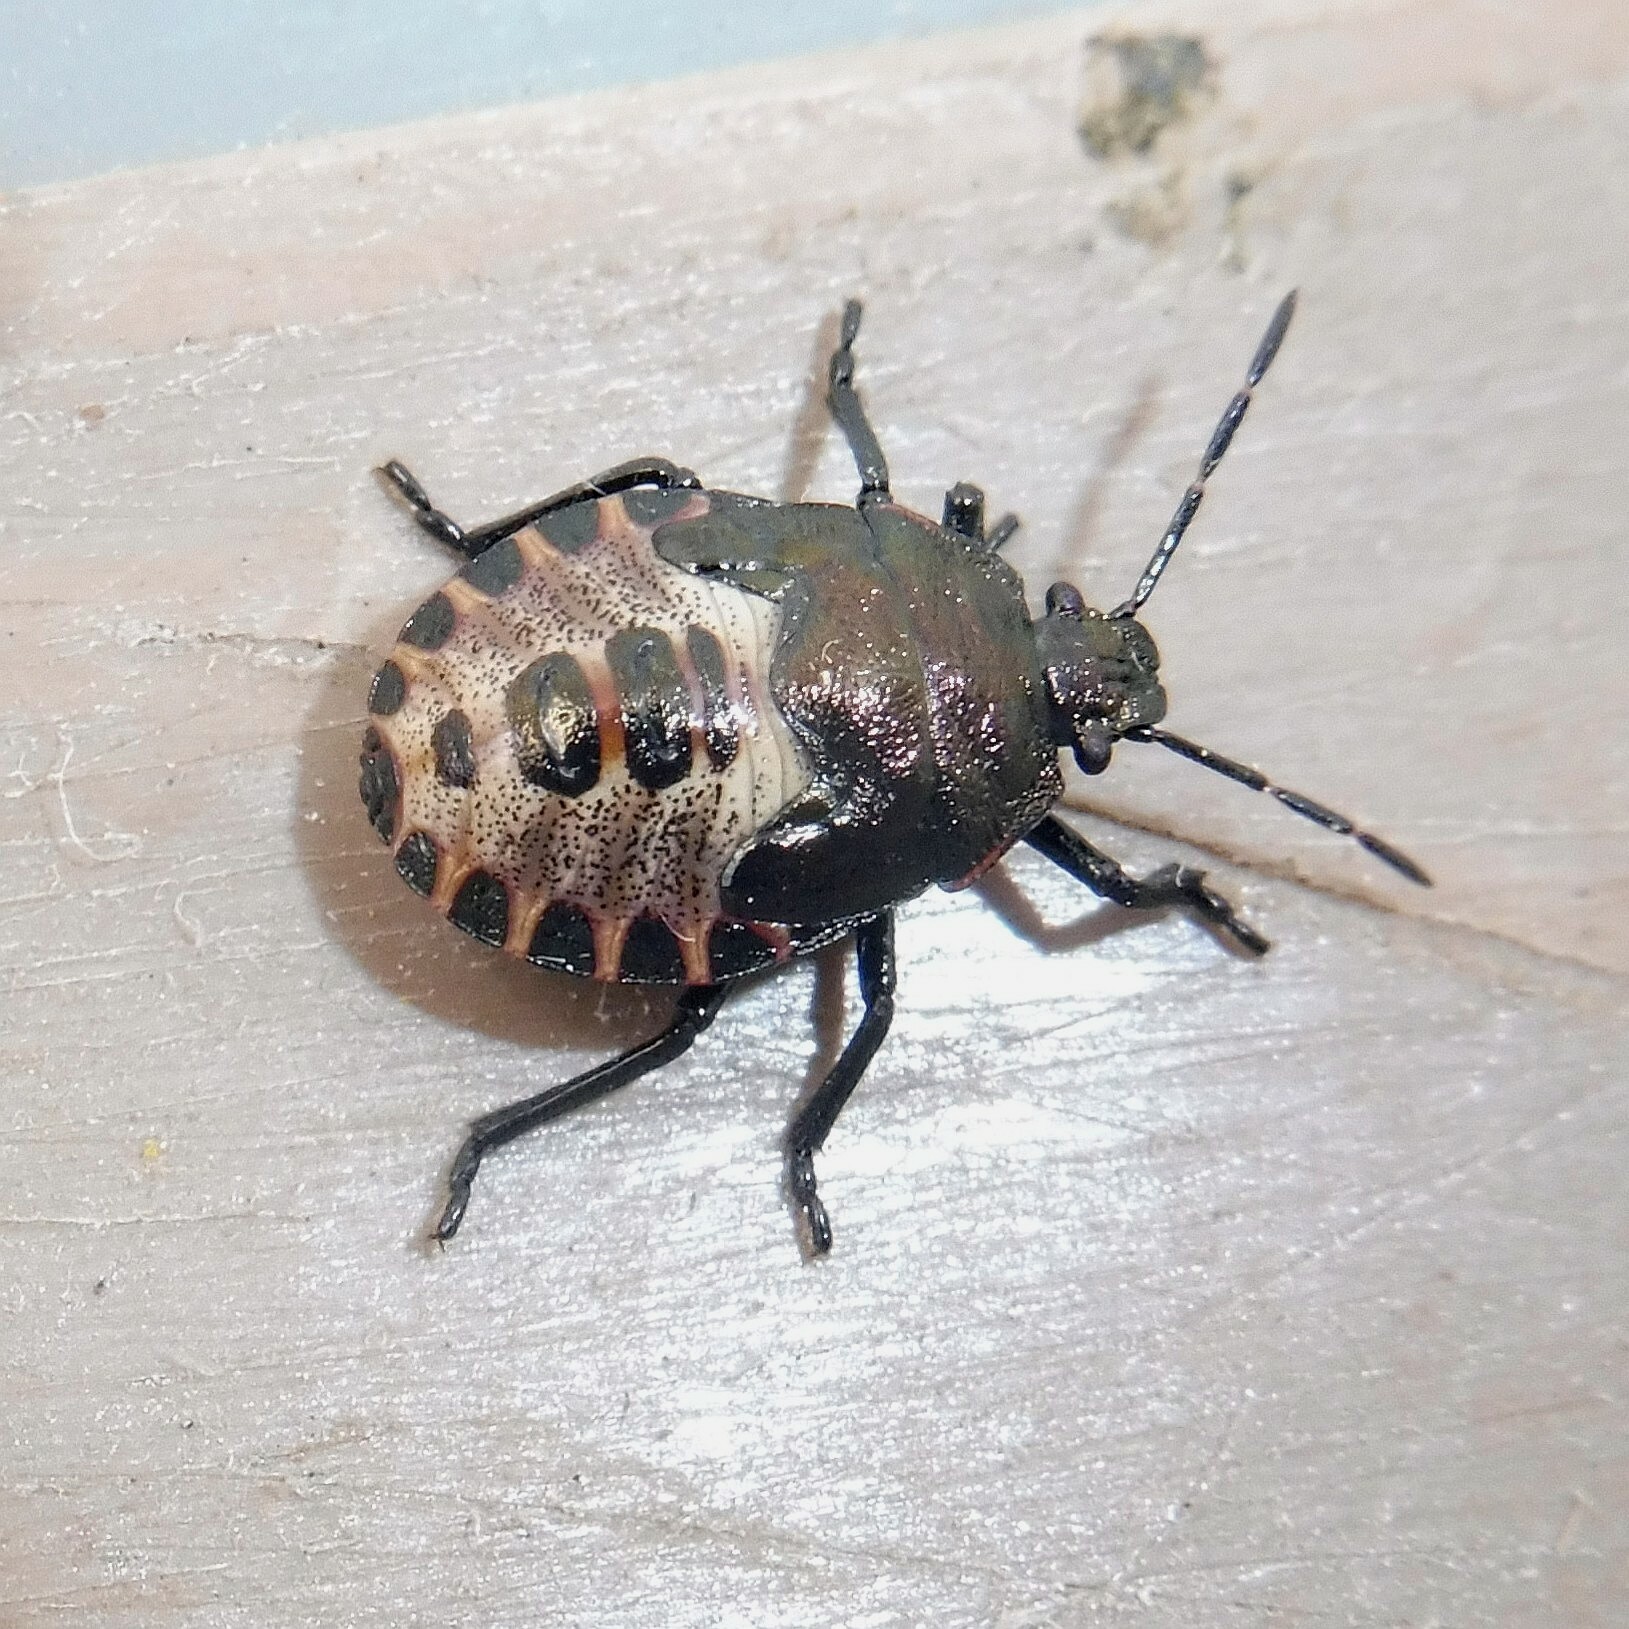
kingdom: Animalia
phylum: Arthropoda
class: Insecta
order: Hemiptera
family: Pentatomidae
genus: Rhacognathus
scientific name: Rhacognathus punctatus
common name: Heather bug
